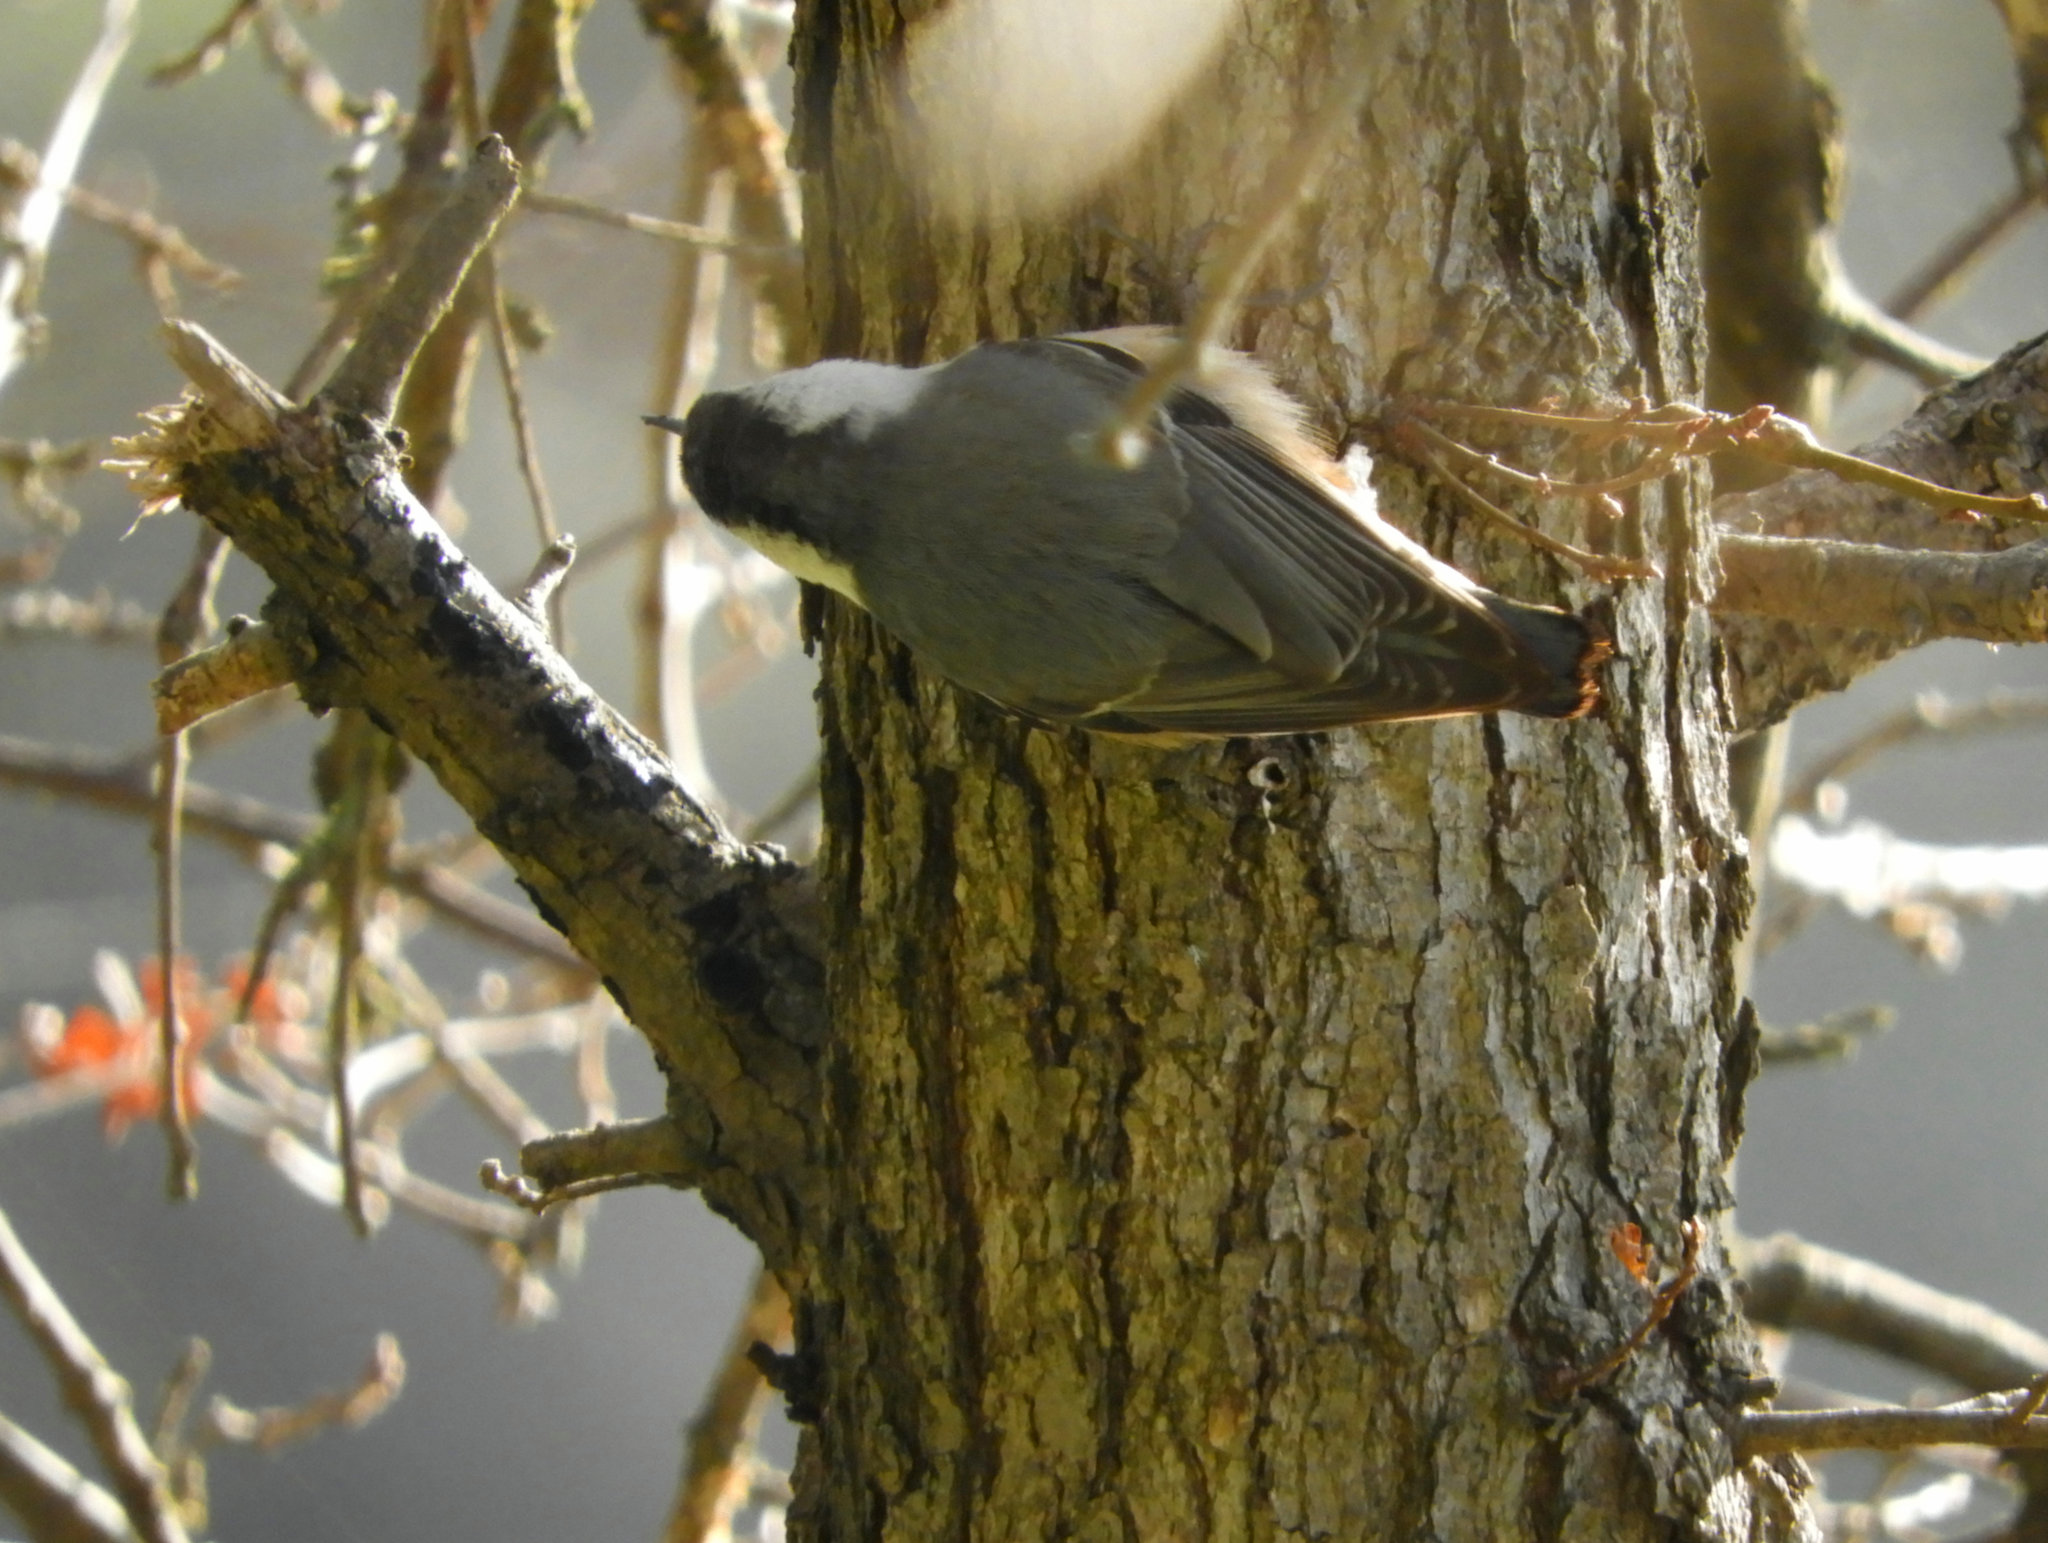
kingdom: Animalia
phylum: Chordata
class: Aves
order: Passeriformes
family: Sittidae
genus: Sitta
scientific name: Sitta carolinensis
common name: White-breasted nuthatch
